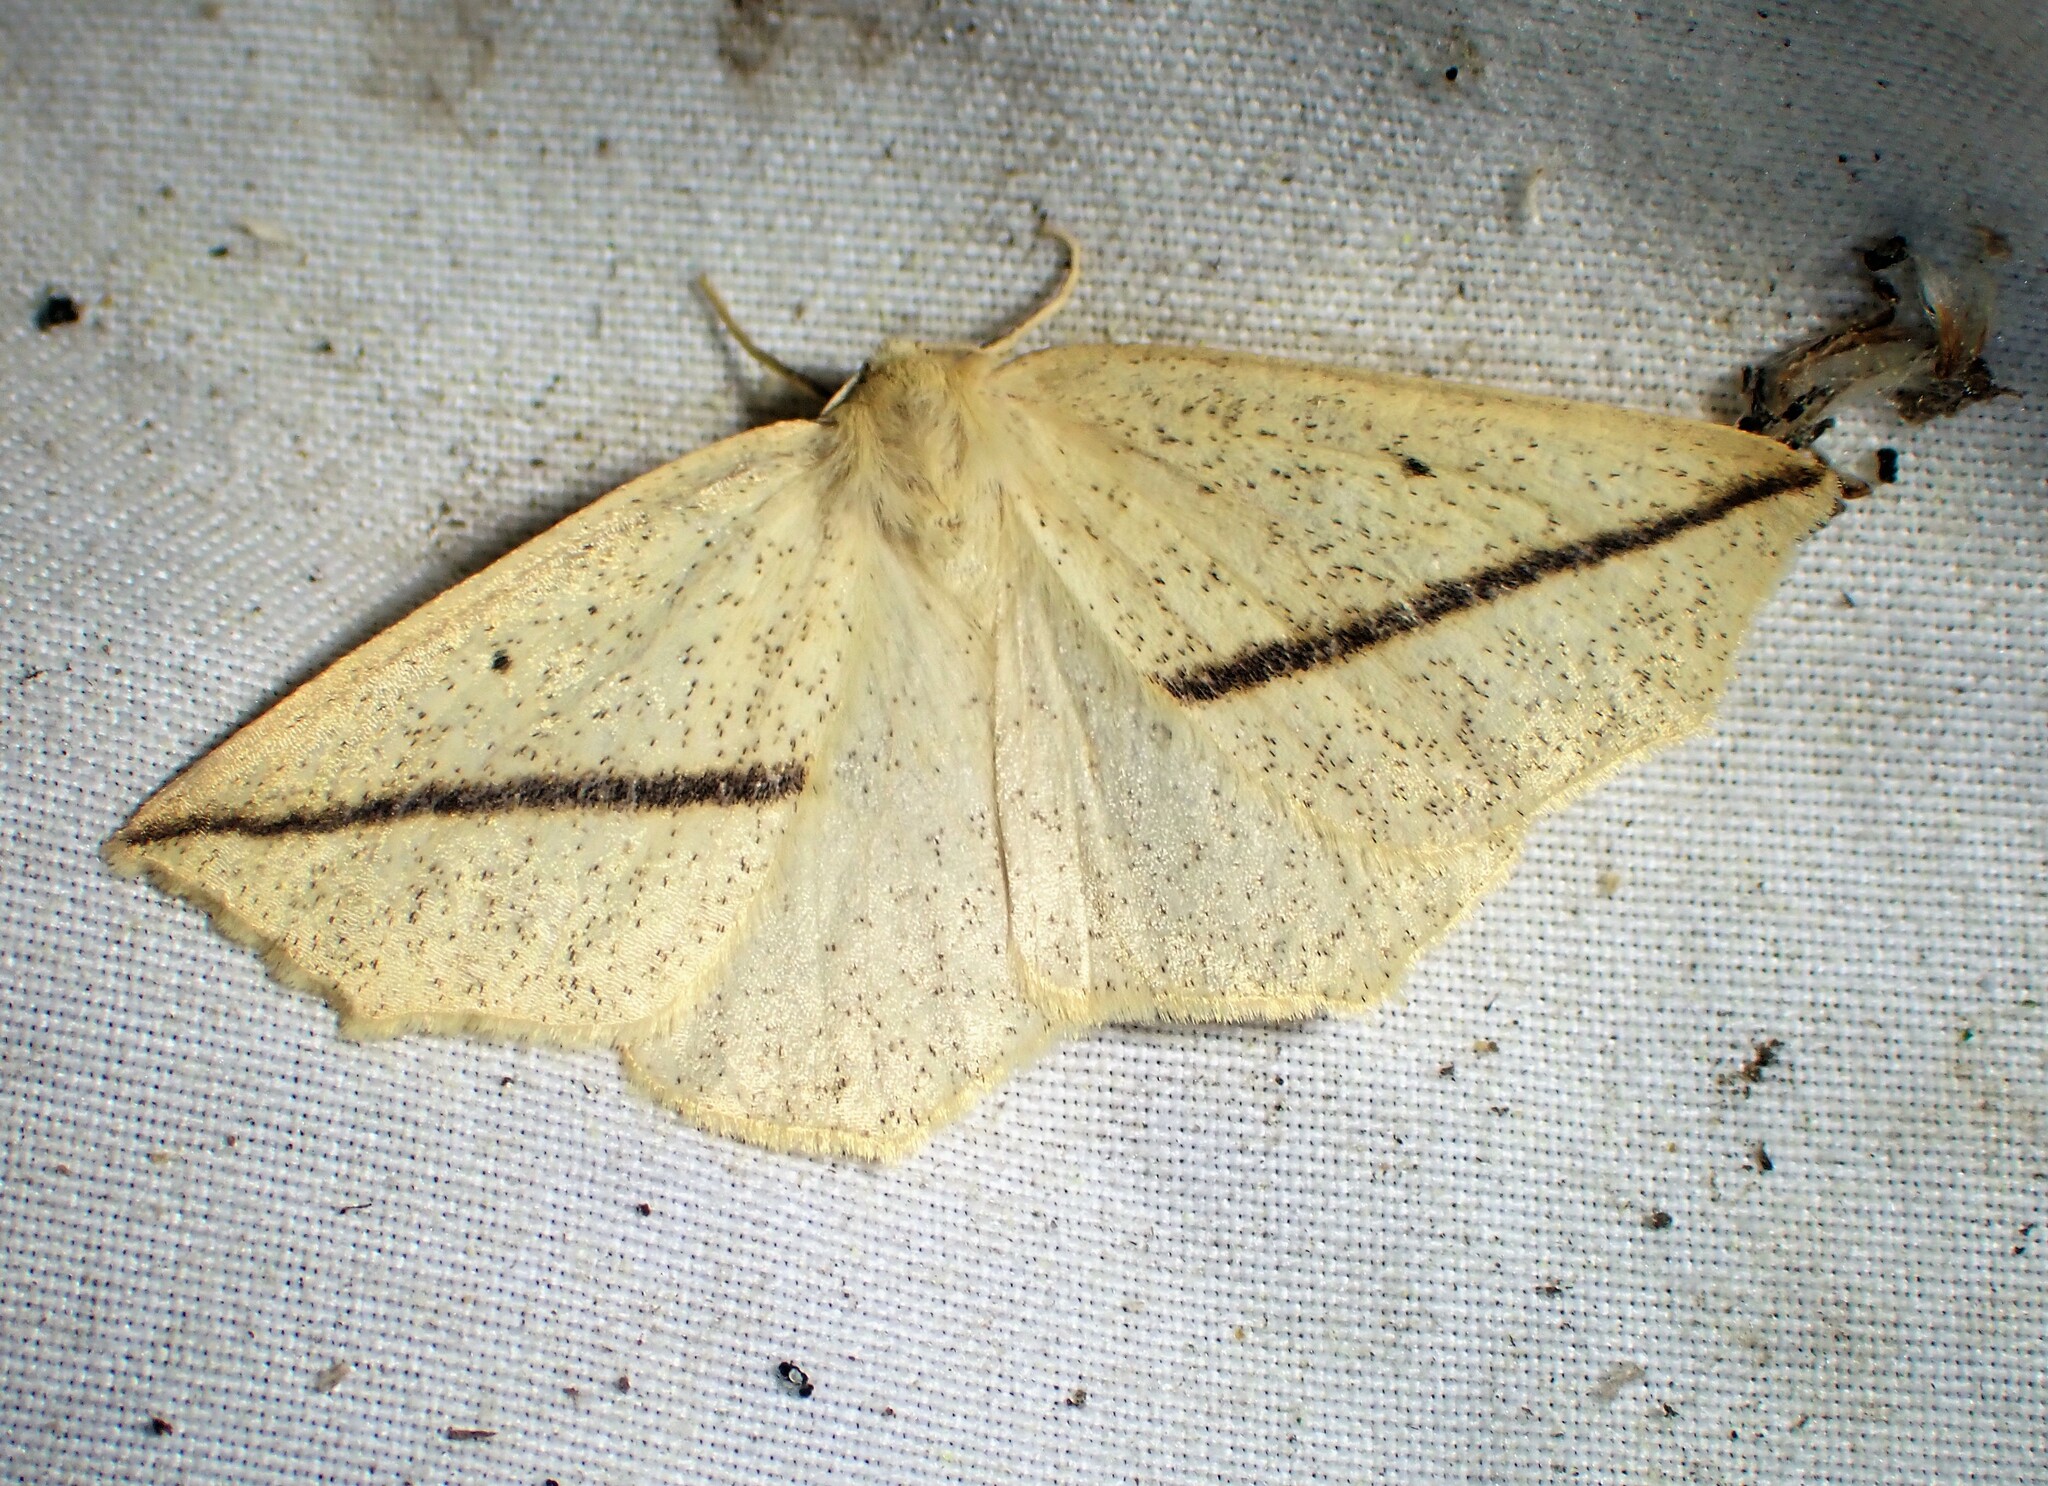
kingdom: Animalia
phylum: Arthropoda
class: Insecta
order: Lepidoptera
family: Geometridae
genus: Tetracis
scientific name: Tetracis crocallata
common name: Yellow slant-line
